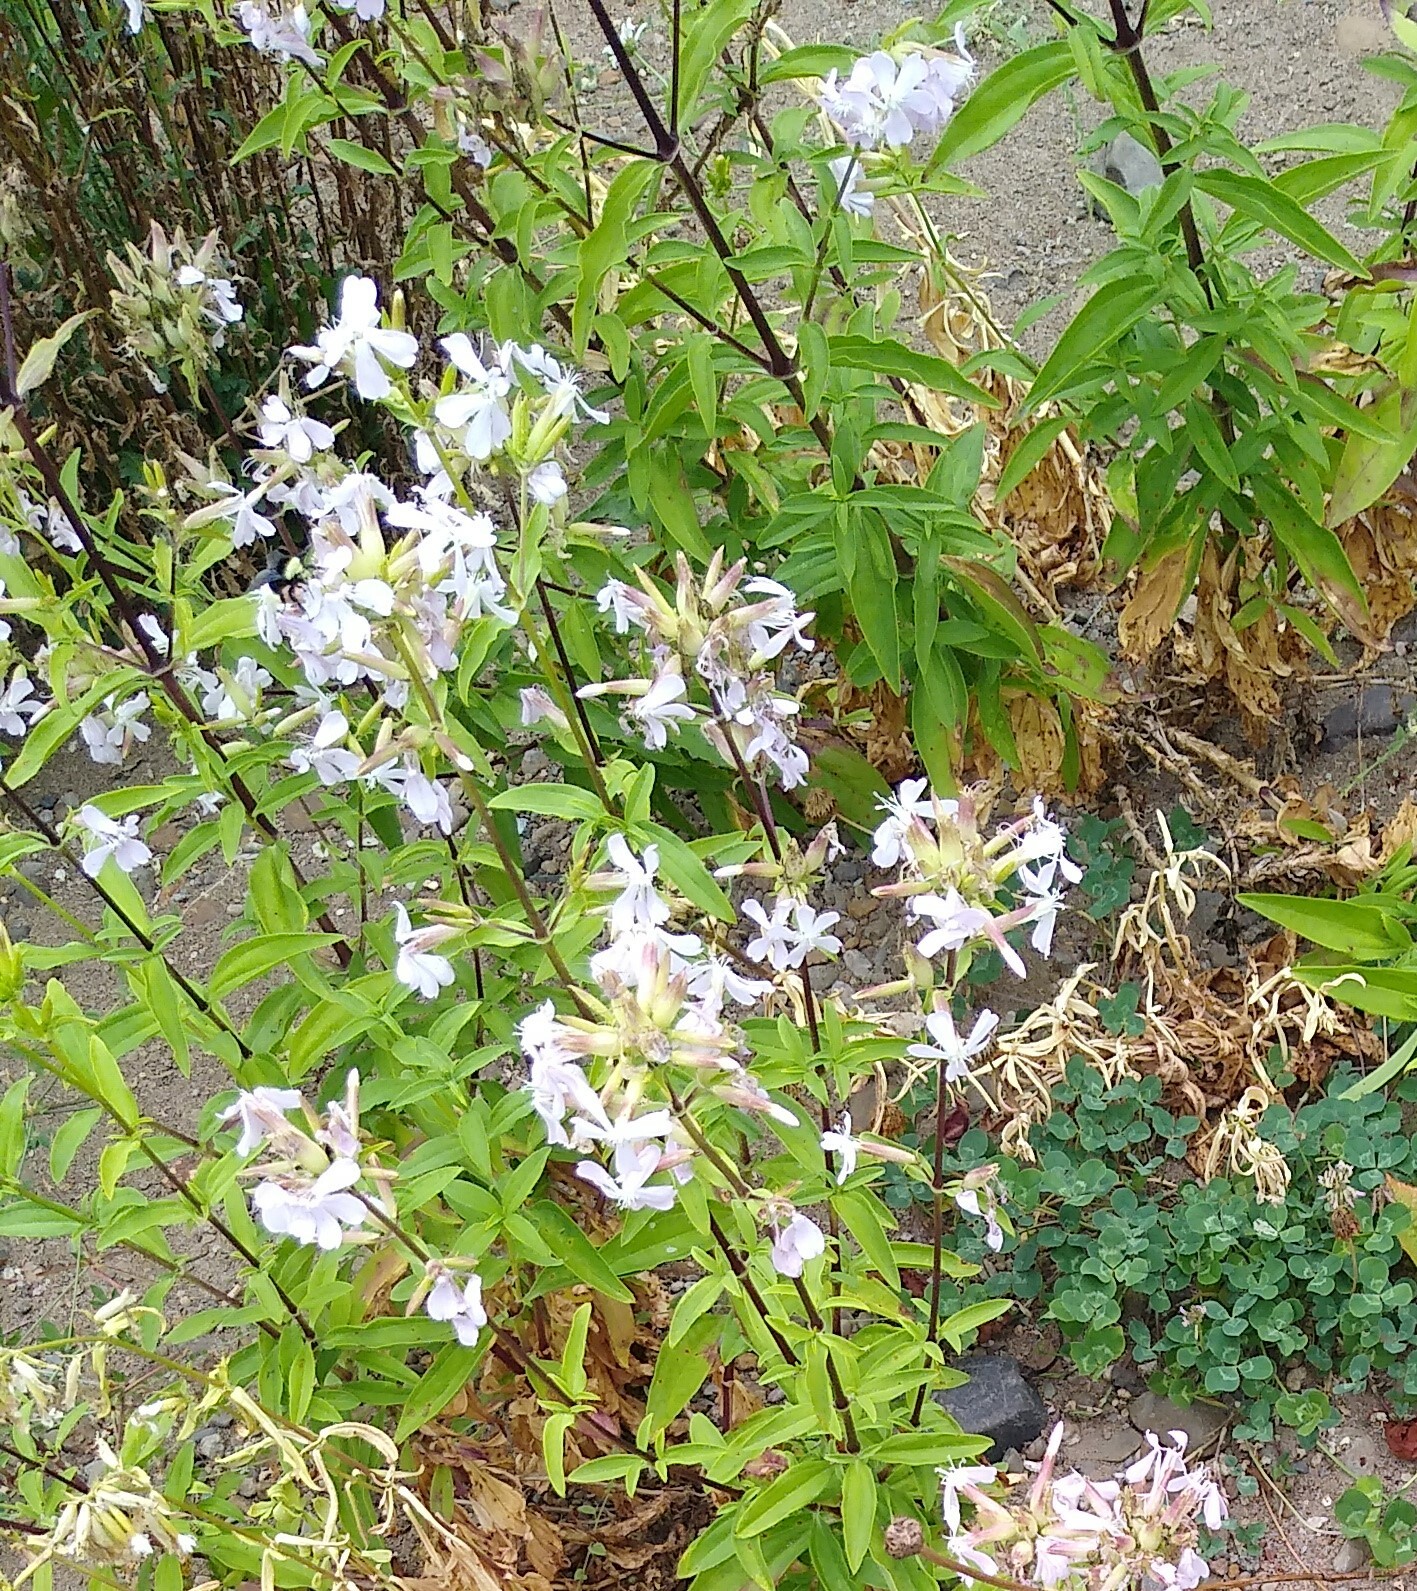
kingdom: Plantae
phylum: Tracheophyta
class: Magnoliopsida
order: Caryophyllales
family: Caryophyllaceae
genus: Saponaria
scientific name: Saponaria officinalis
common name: Soapwort
